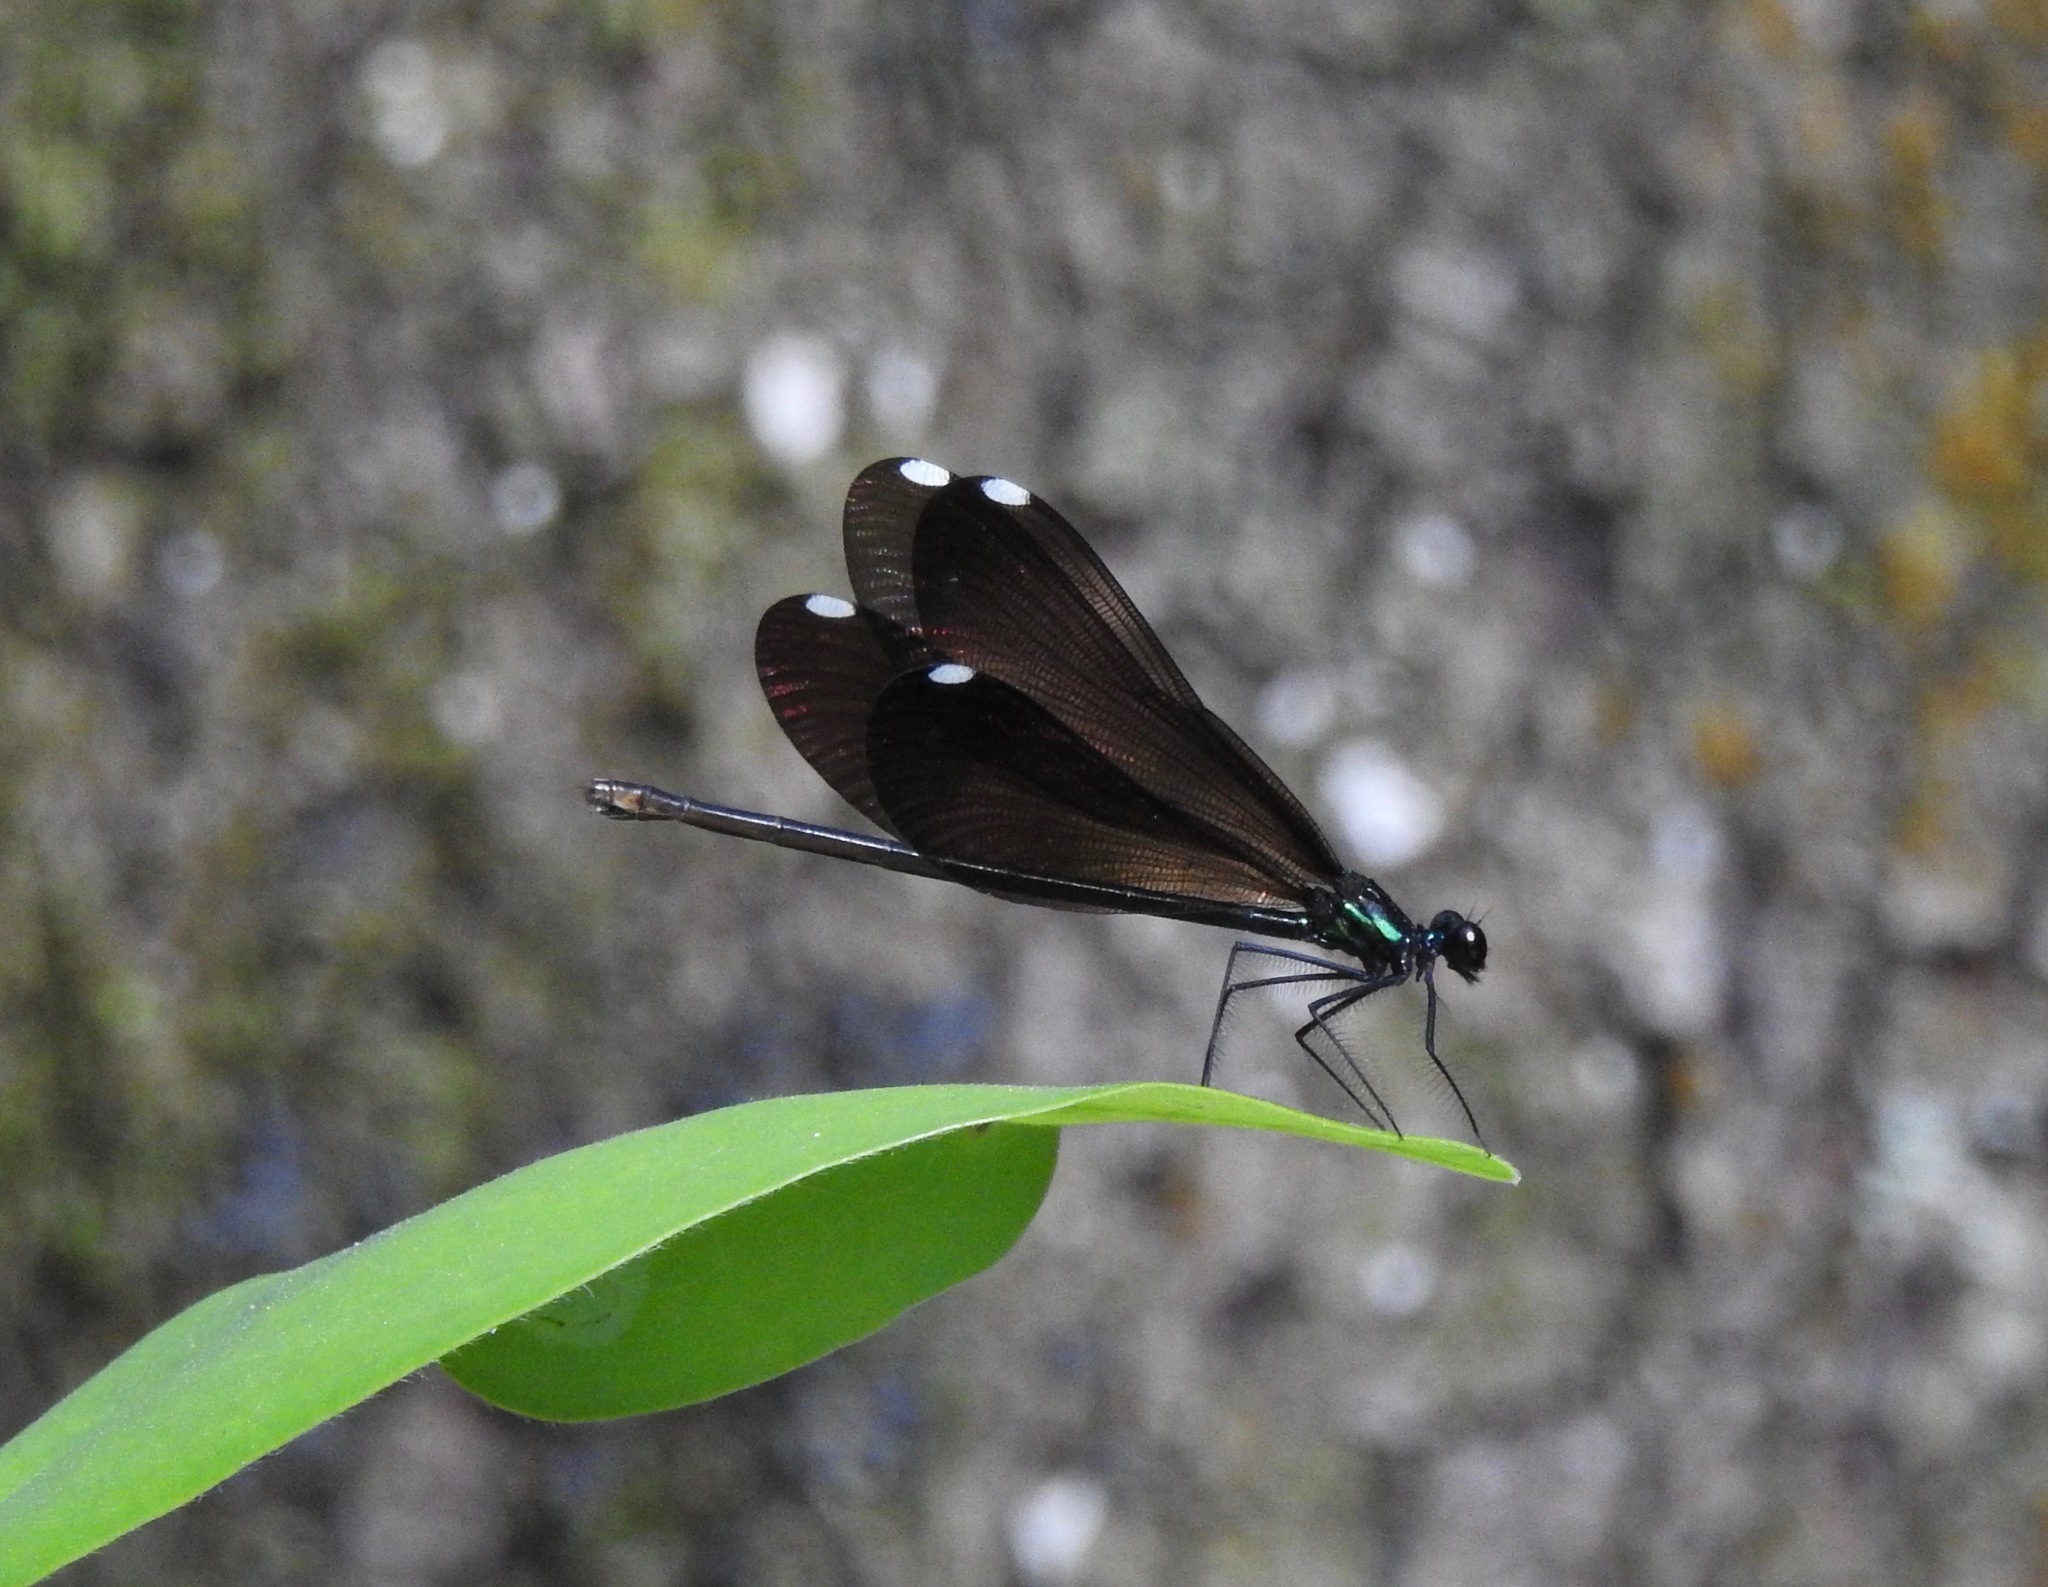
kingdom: Animalia
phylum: Arthropoda
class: Insecta
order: Odonata
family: Calopterygidae
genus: Calopteryx
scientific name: Calopteryx maculata
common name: Ebony jewelwing
